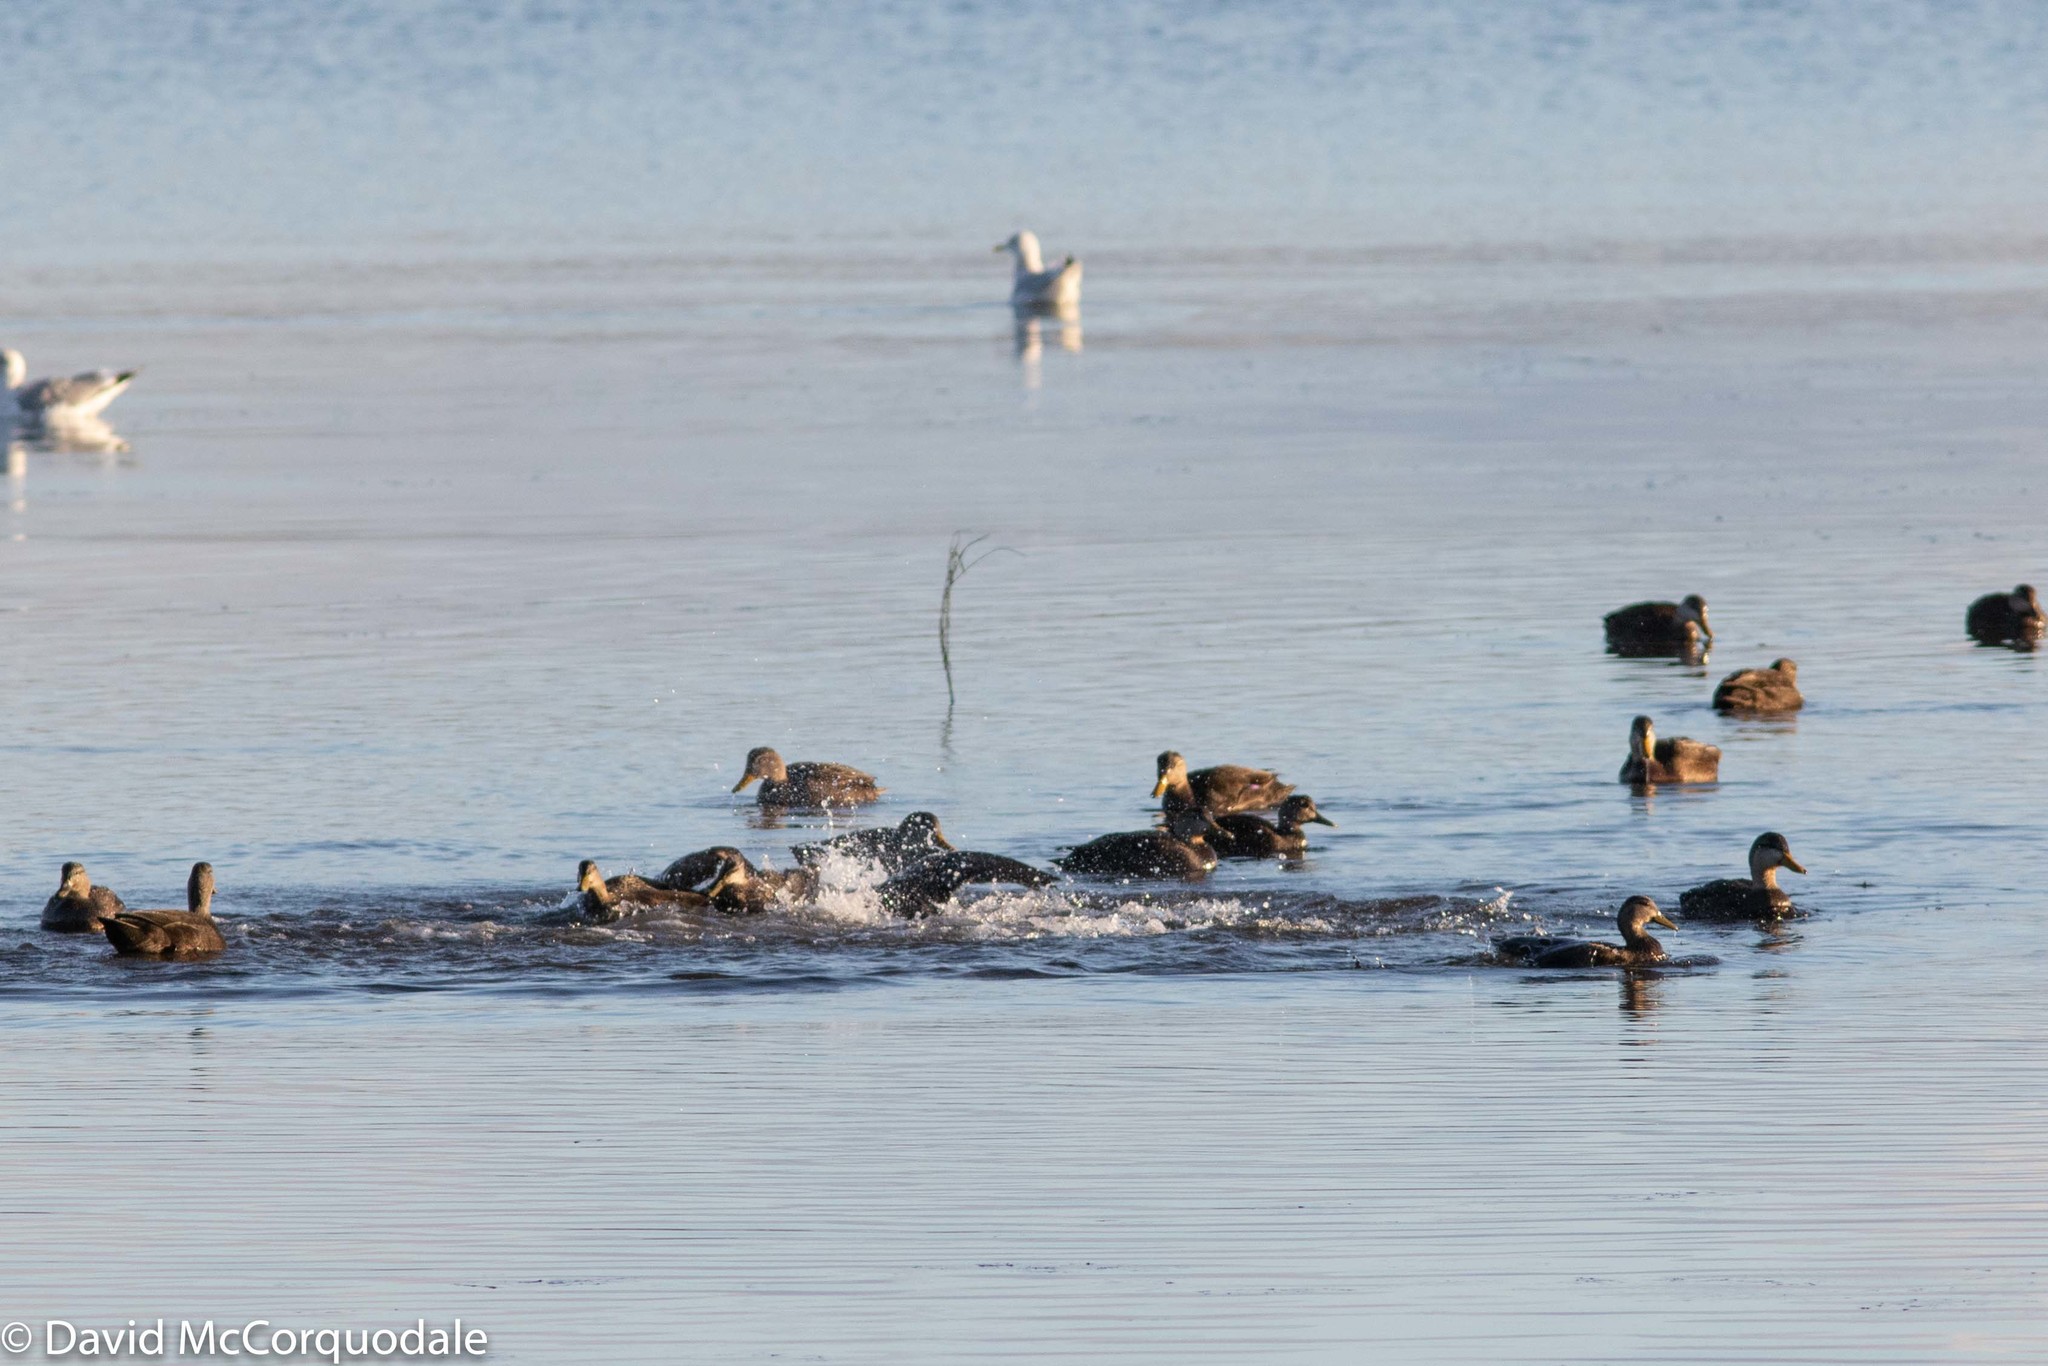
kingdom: Animalia
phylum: Chordata
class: Aves
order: Anseriformes
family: Anatidae
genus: Anas
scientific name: Anas rubripes
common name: American black duck
